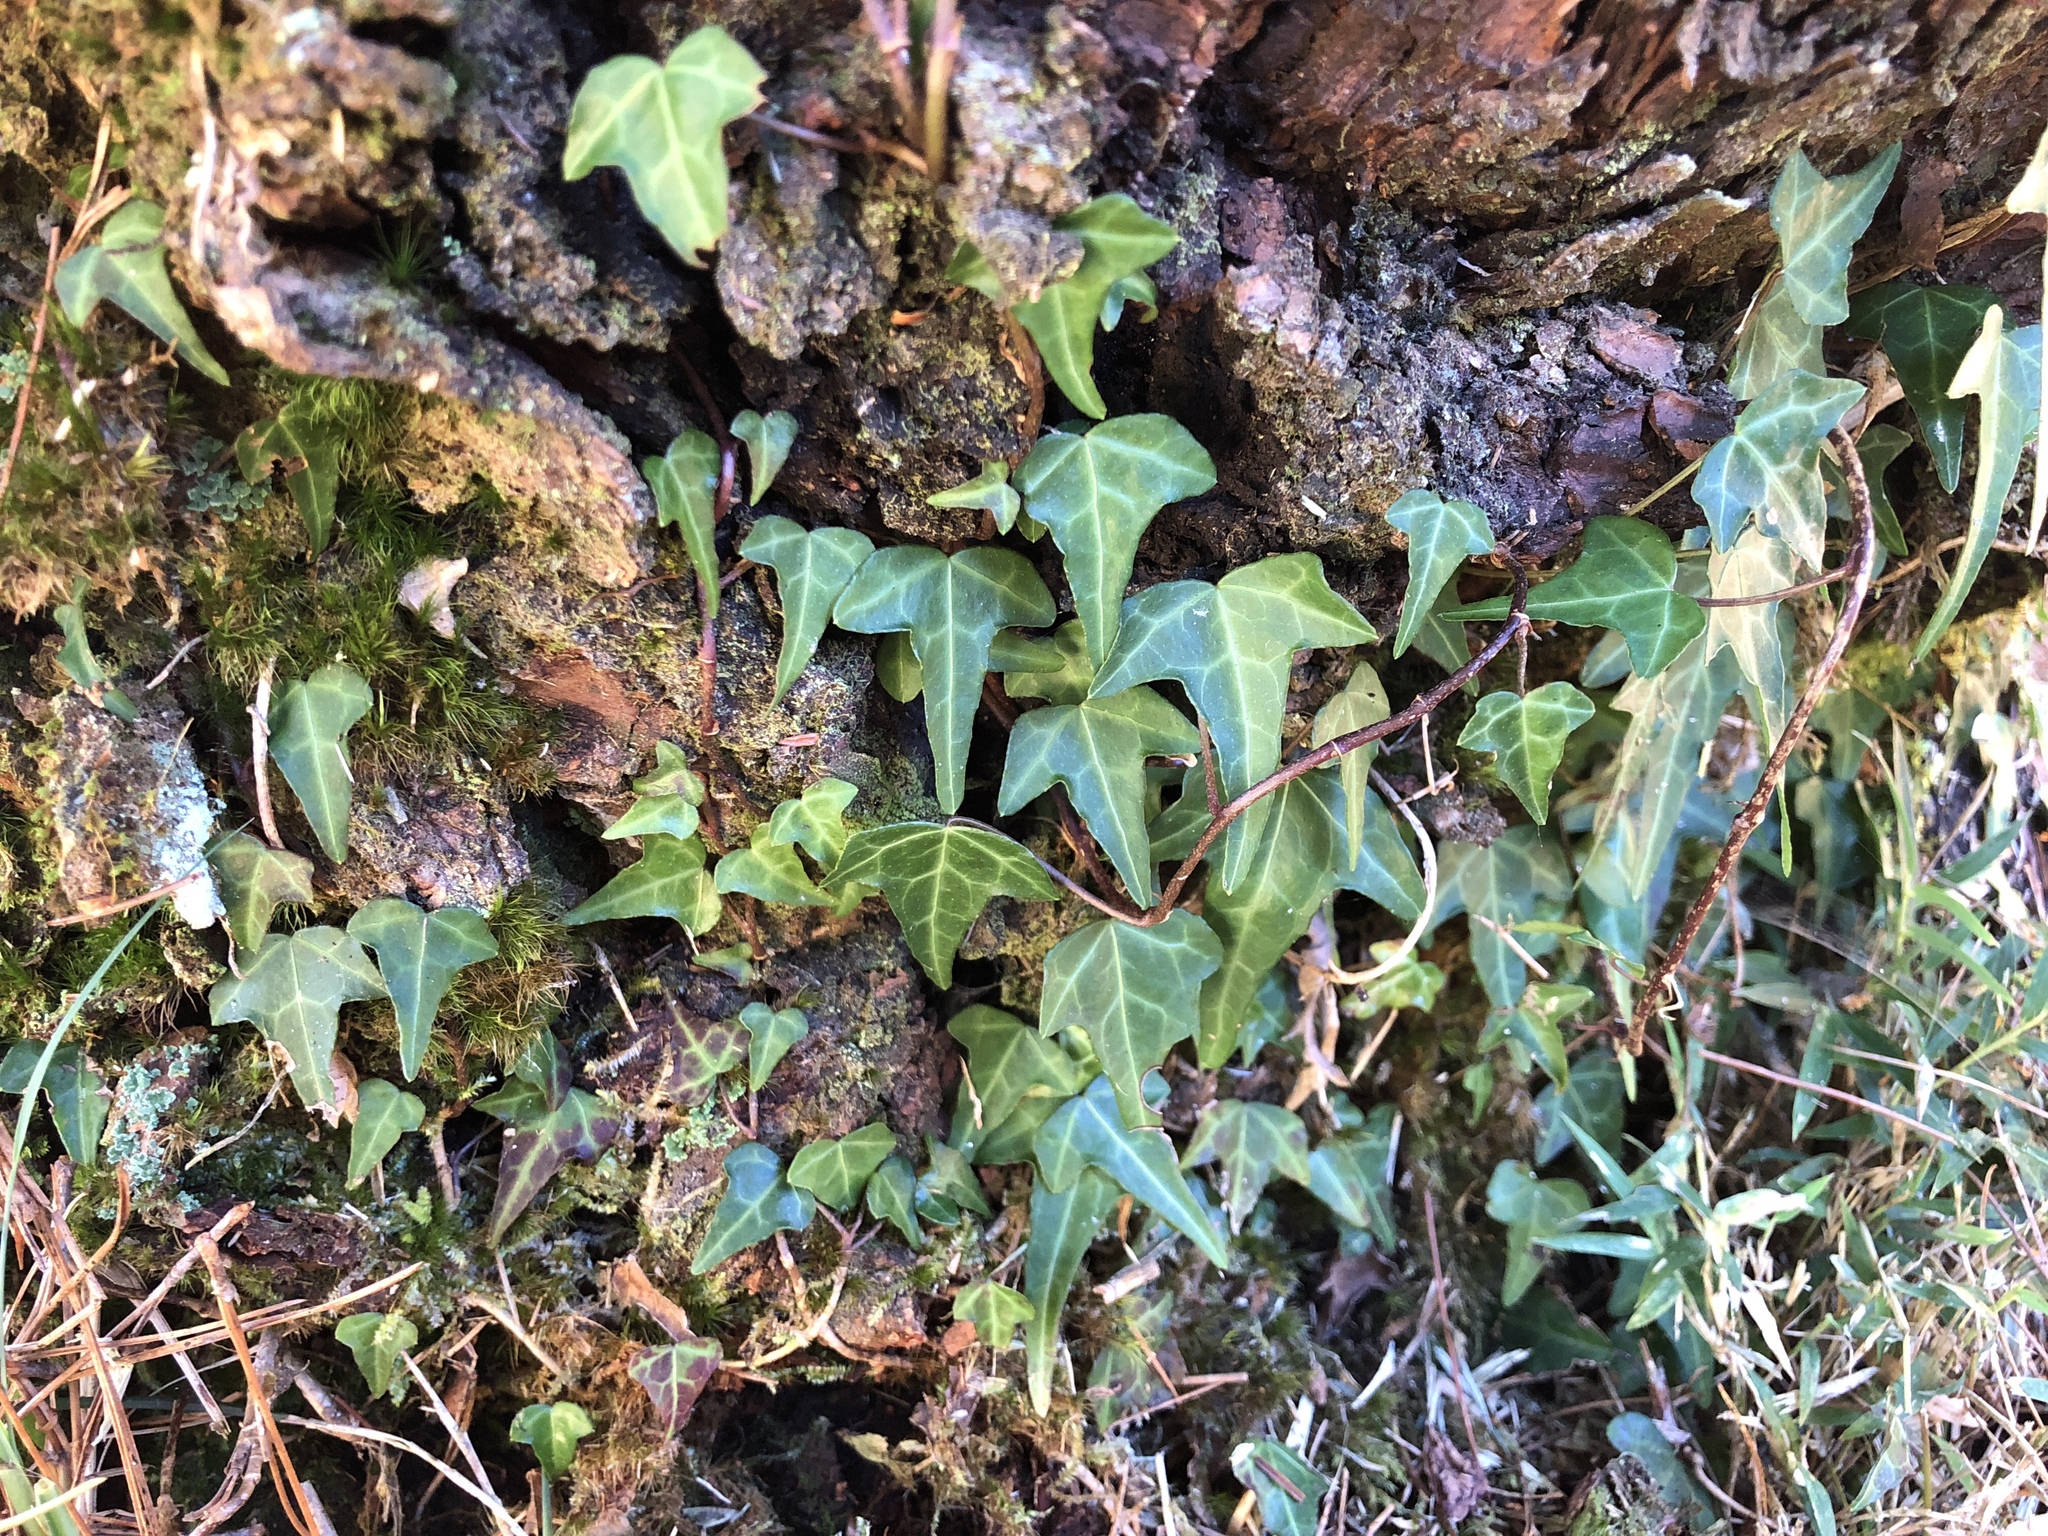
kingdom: Plantae
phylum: Tracheophyta
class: Magnoliopsida
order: Apiales
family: Araliaceae
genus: Hedera
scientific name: Hedera rhombea
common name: Japanese ivy
